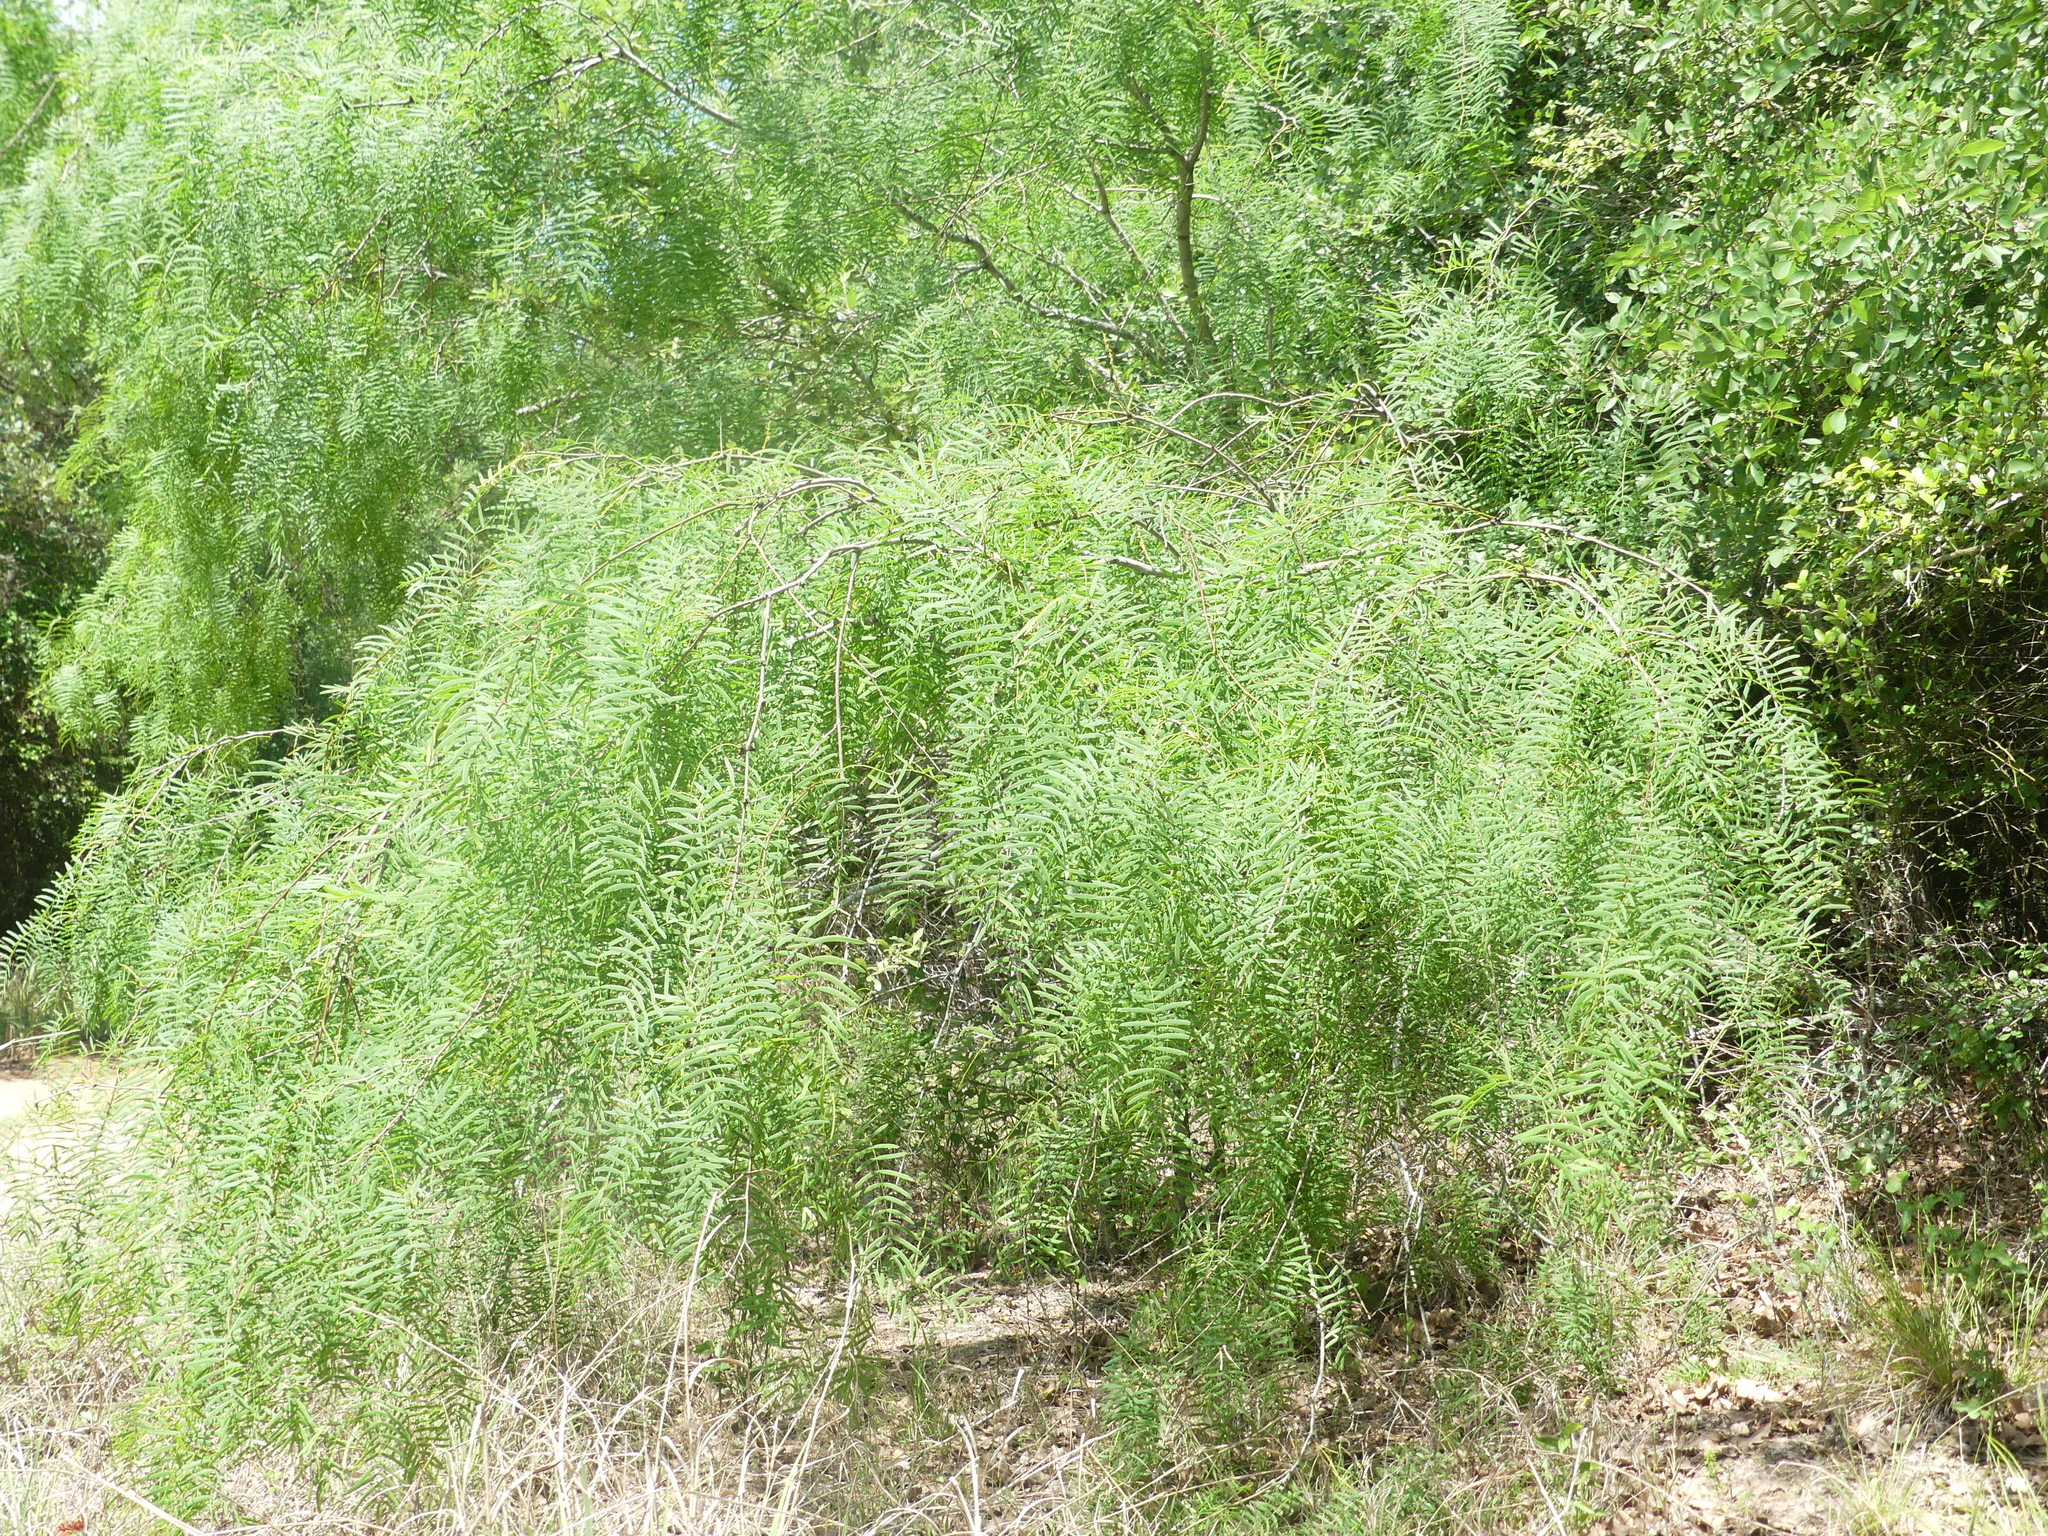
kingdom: Plantae
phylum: Tracheophyta
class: Magnoliopsida
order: Fabales
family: Fabaceae
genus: Prosopis
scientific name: Prosopis glandulosa
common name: Honey mesquite
